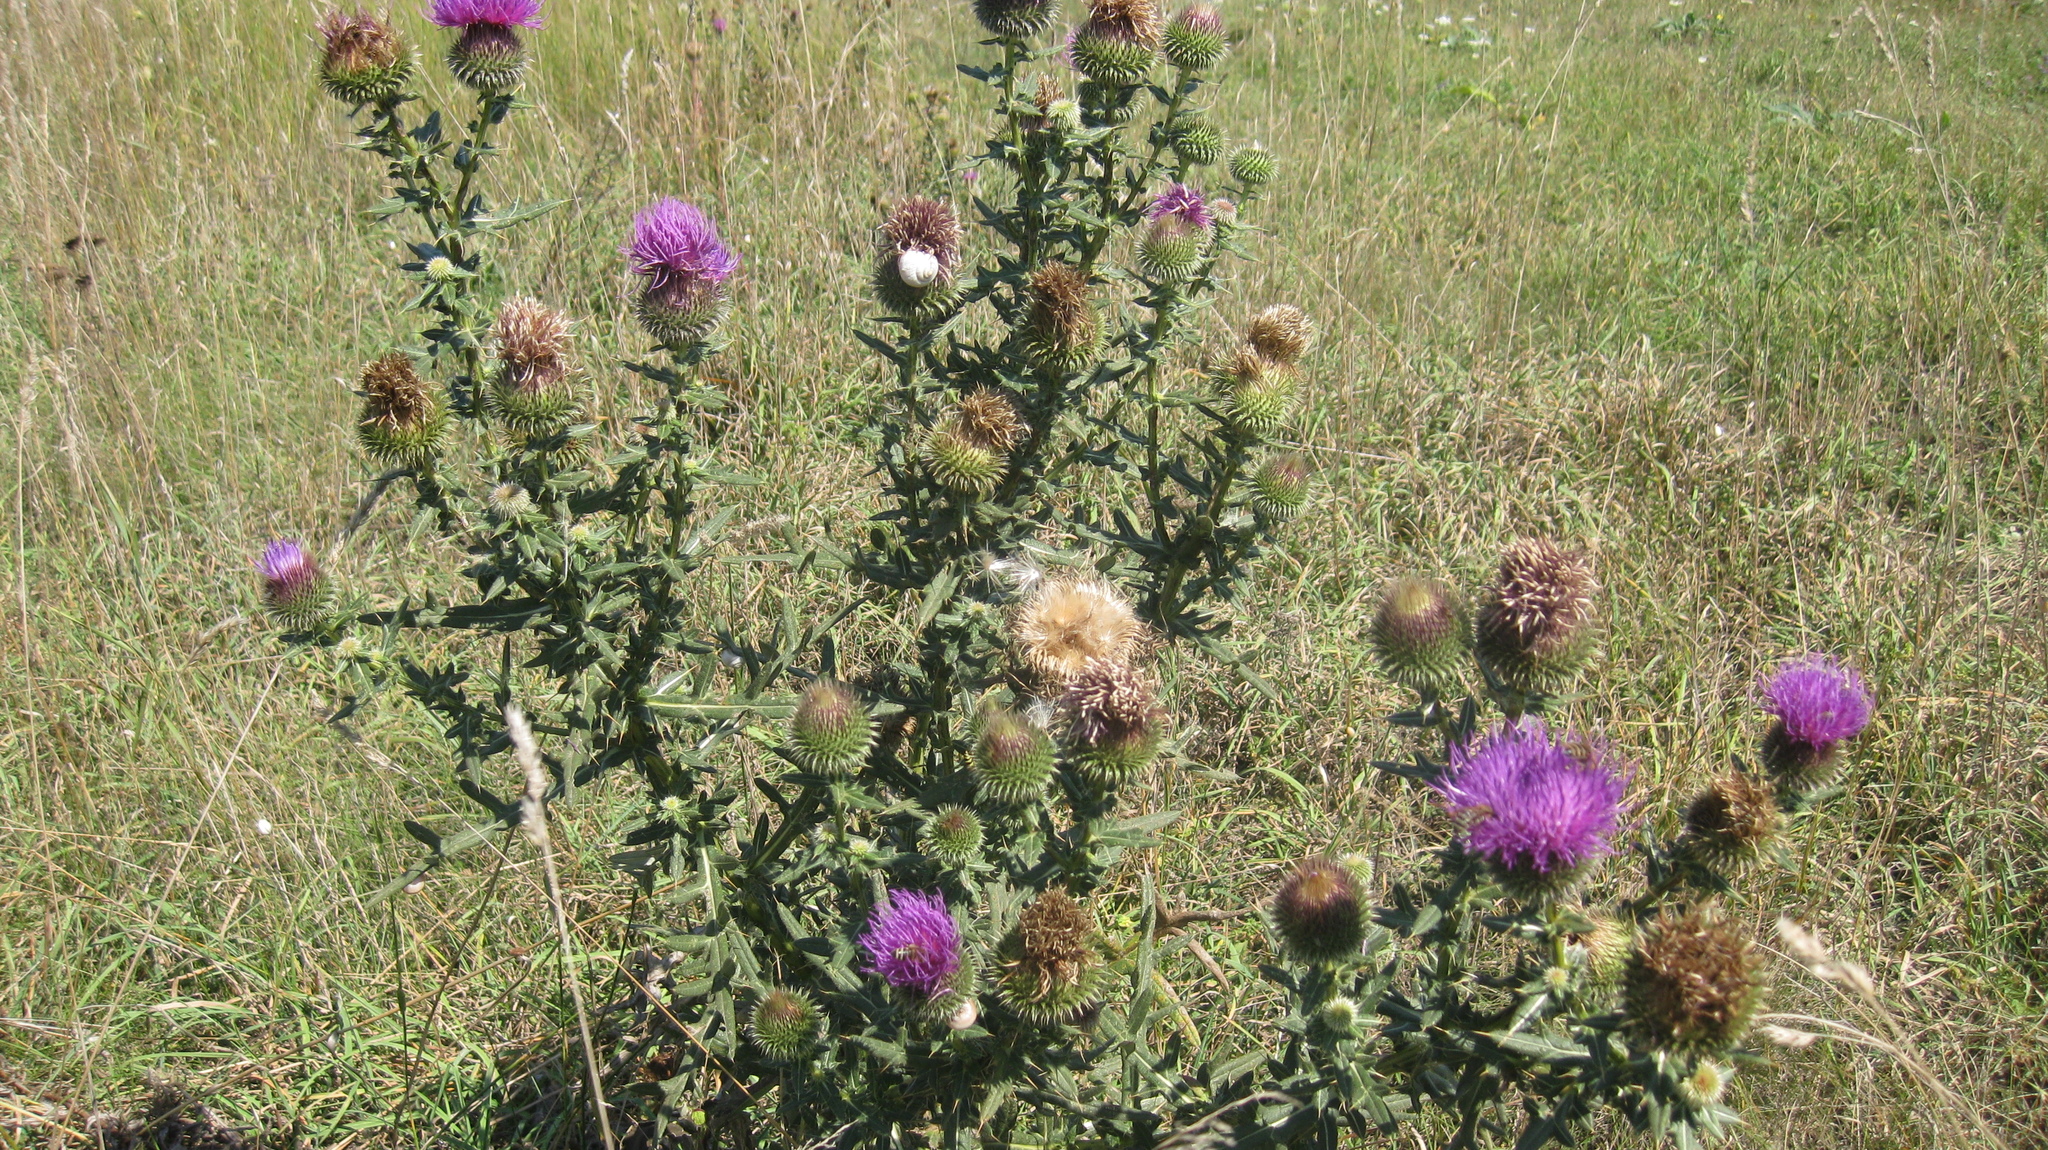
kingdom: Plantae
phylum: Tracheophyta
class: Magnoliopsida
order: Asterales
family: Asteraceae
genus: Lophiolepis
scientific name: Lophiolepis ciliata
